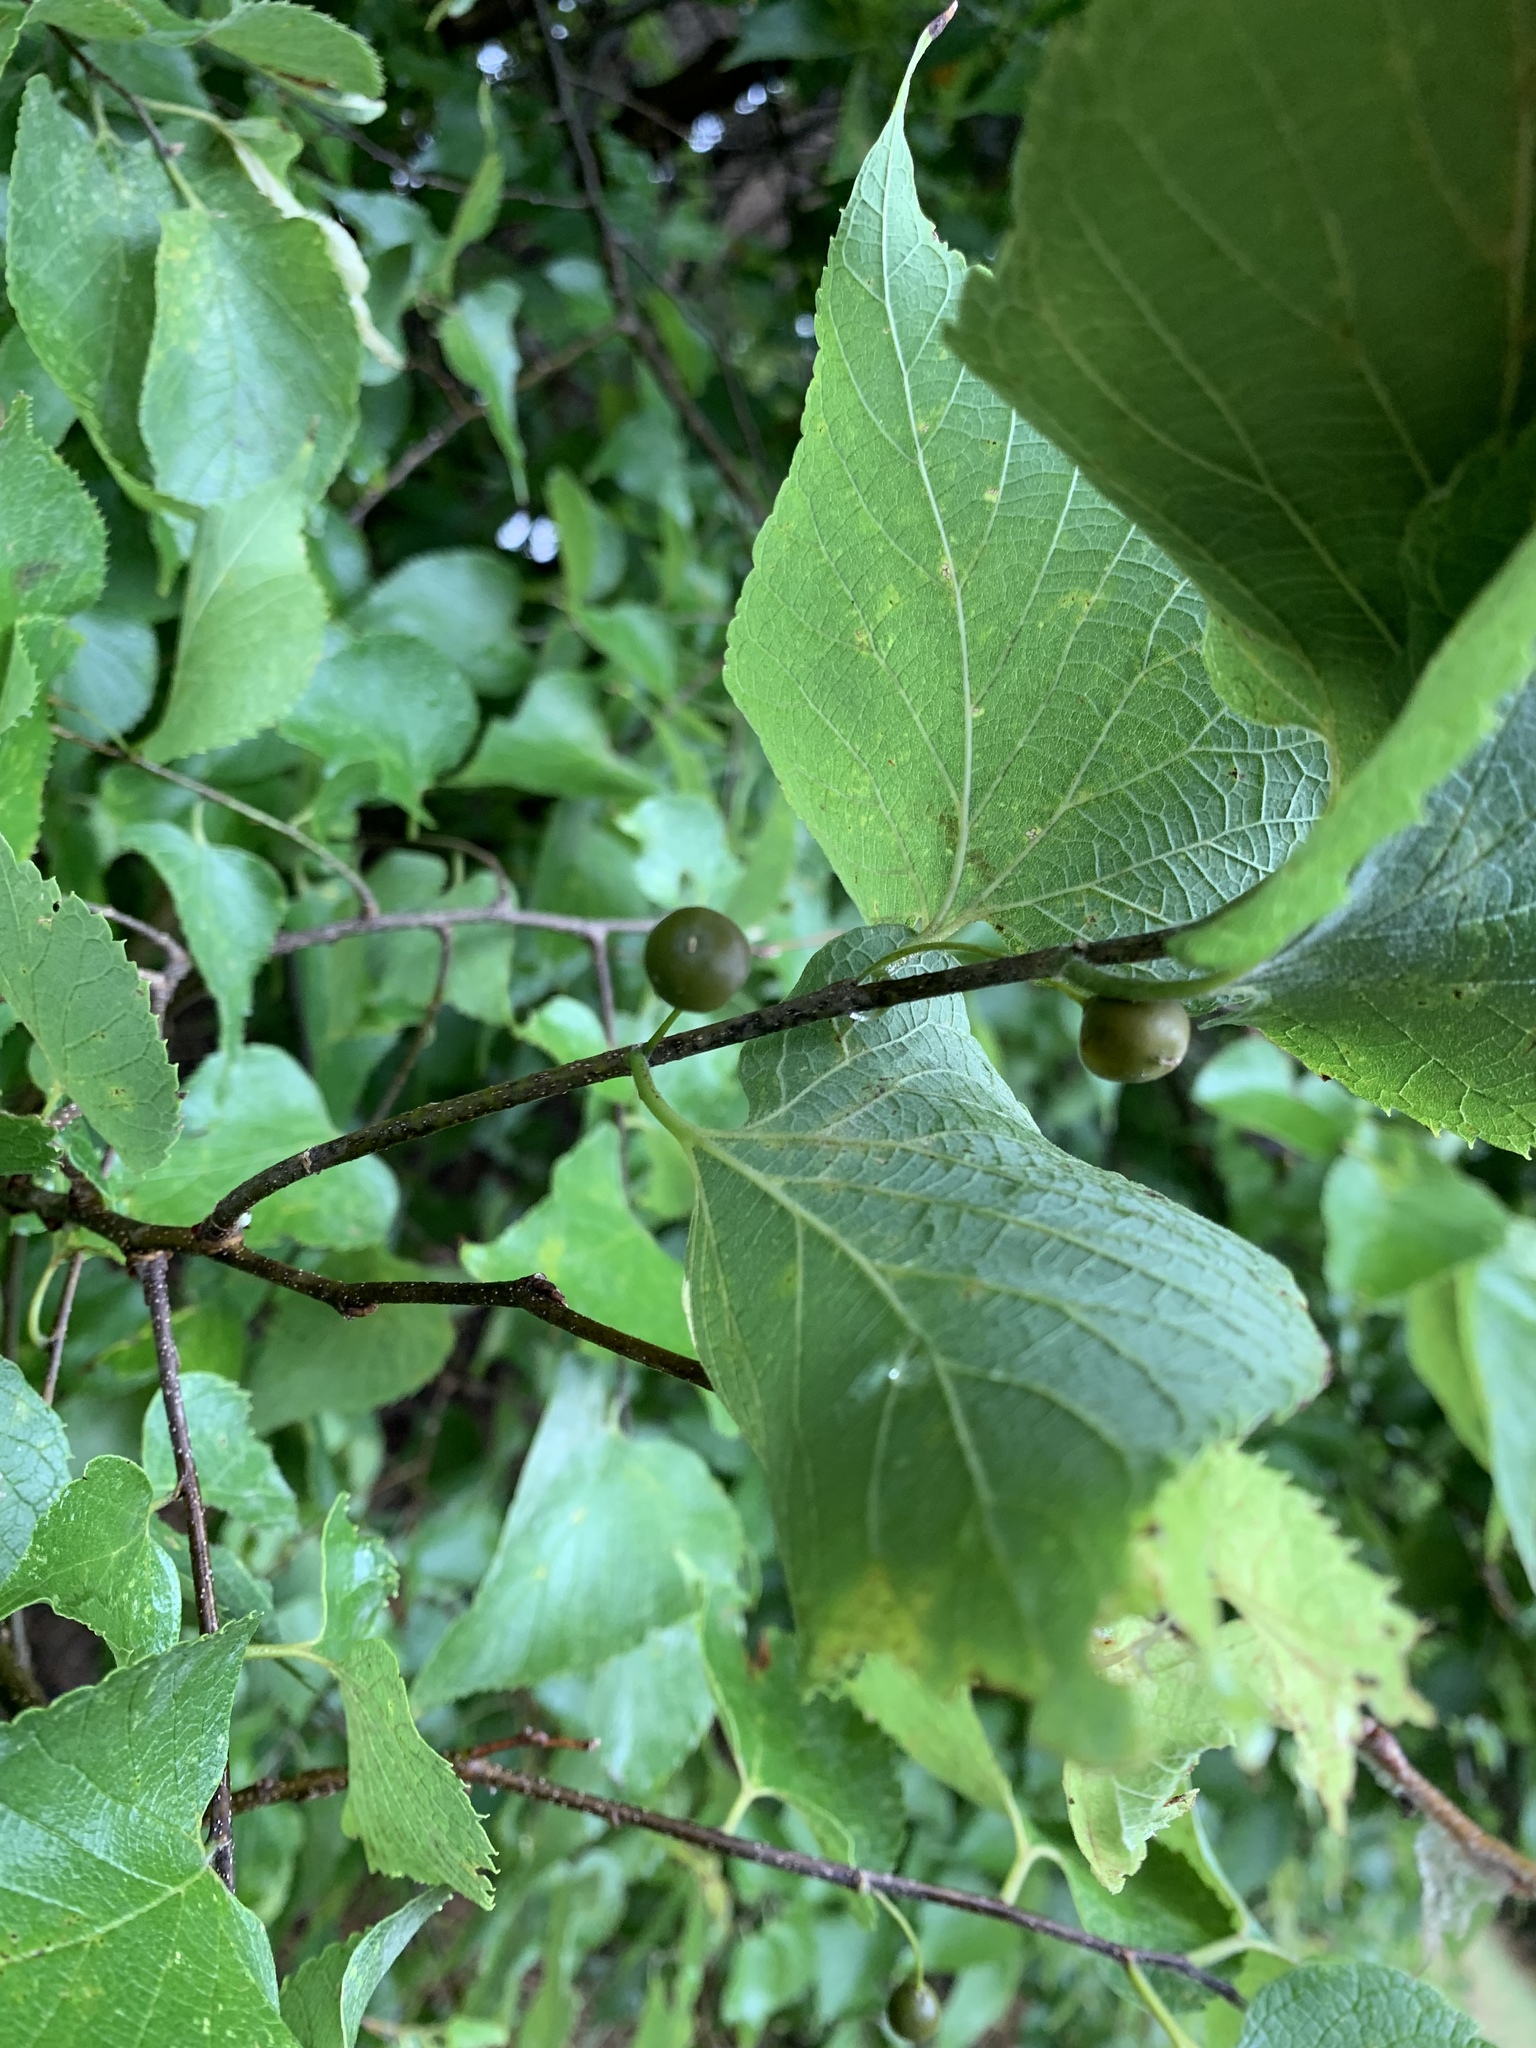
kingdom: Plantae
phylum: Tracheophyta
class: Magnoliopsida
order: Rosales
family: Cannabaceae
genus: Celtis
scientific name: Celtis occidentalis
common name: Common hackberry
